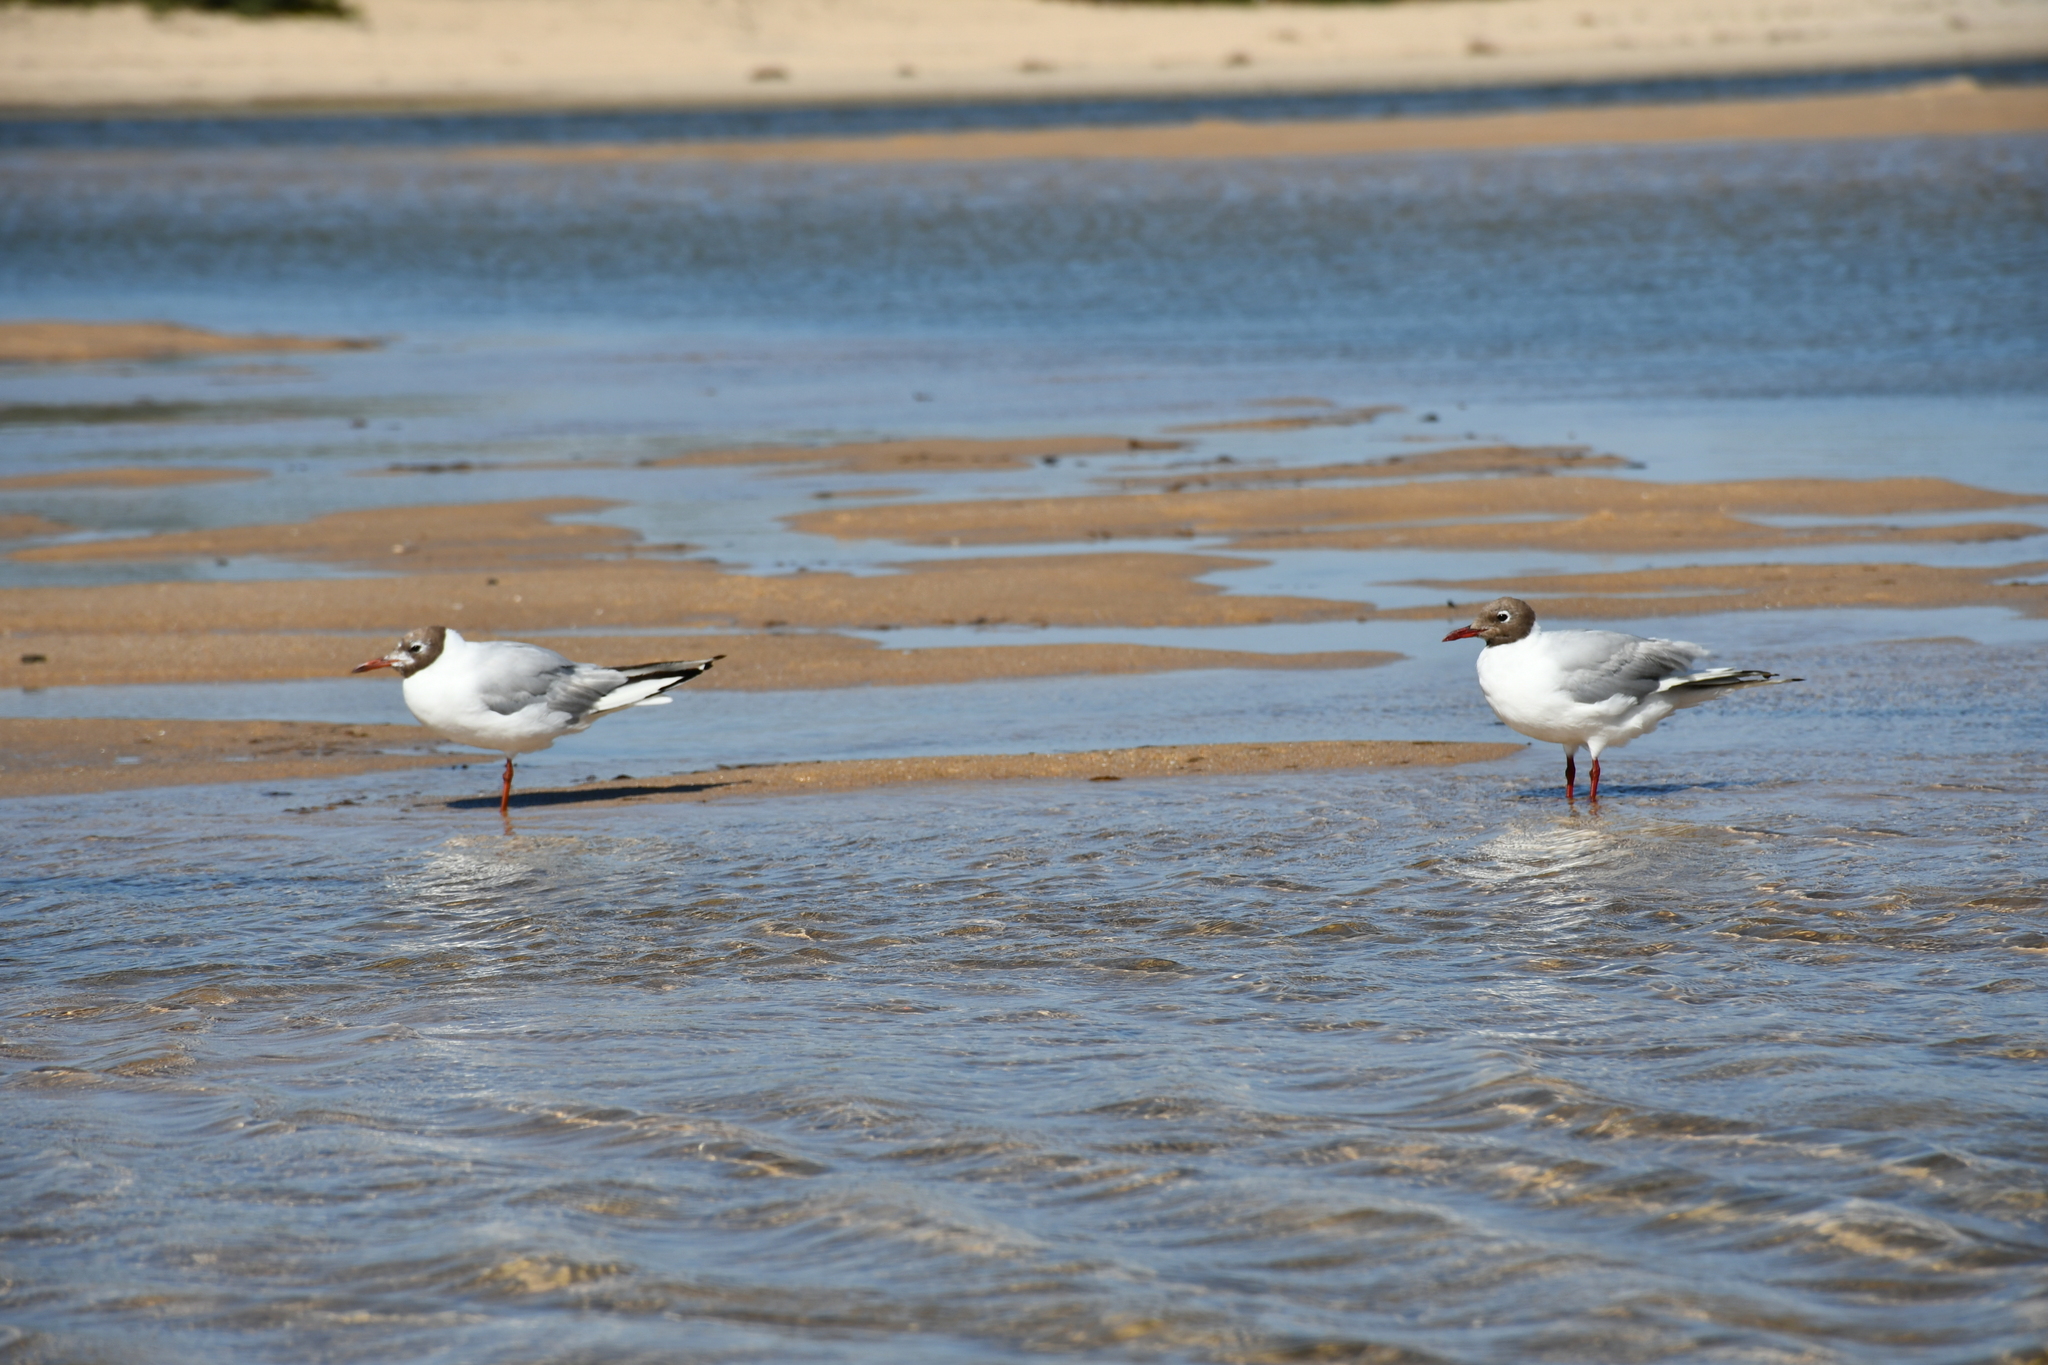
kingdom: Animalia
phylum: Chordata
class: Aves
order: Charadriiformes
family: Laridae
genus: Chroicocephalus
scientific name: Chroicocephalus ridibundus
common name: Black-headed gull
